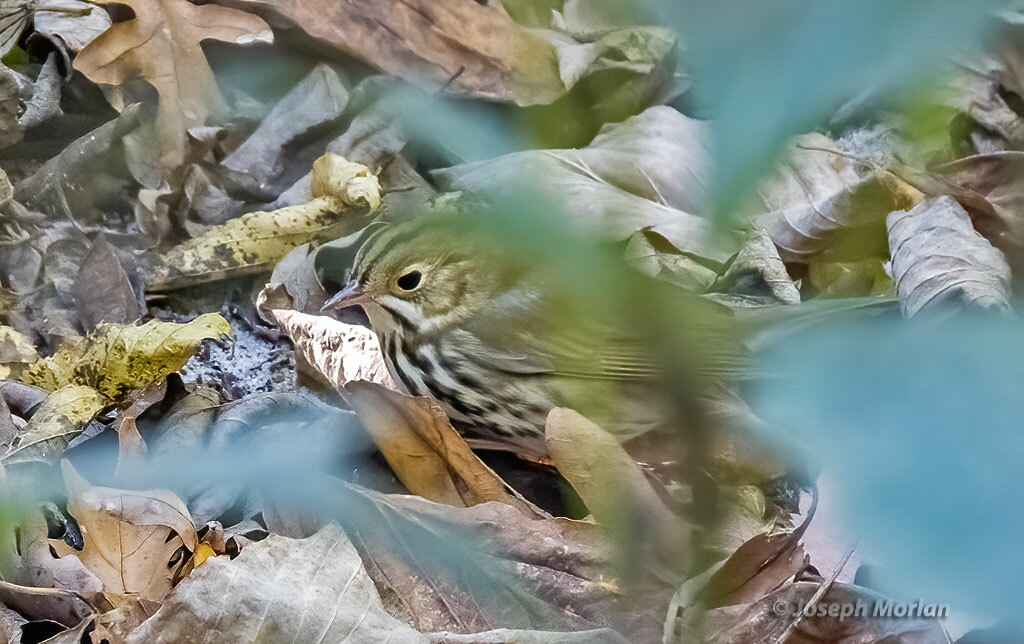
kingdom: Animalia
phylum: Chordata
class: Aves
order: Passeriformes
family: Parulidae
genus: Seiurus
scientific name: Seiurus aurocapilla
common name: Ovenbird
